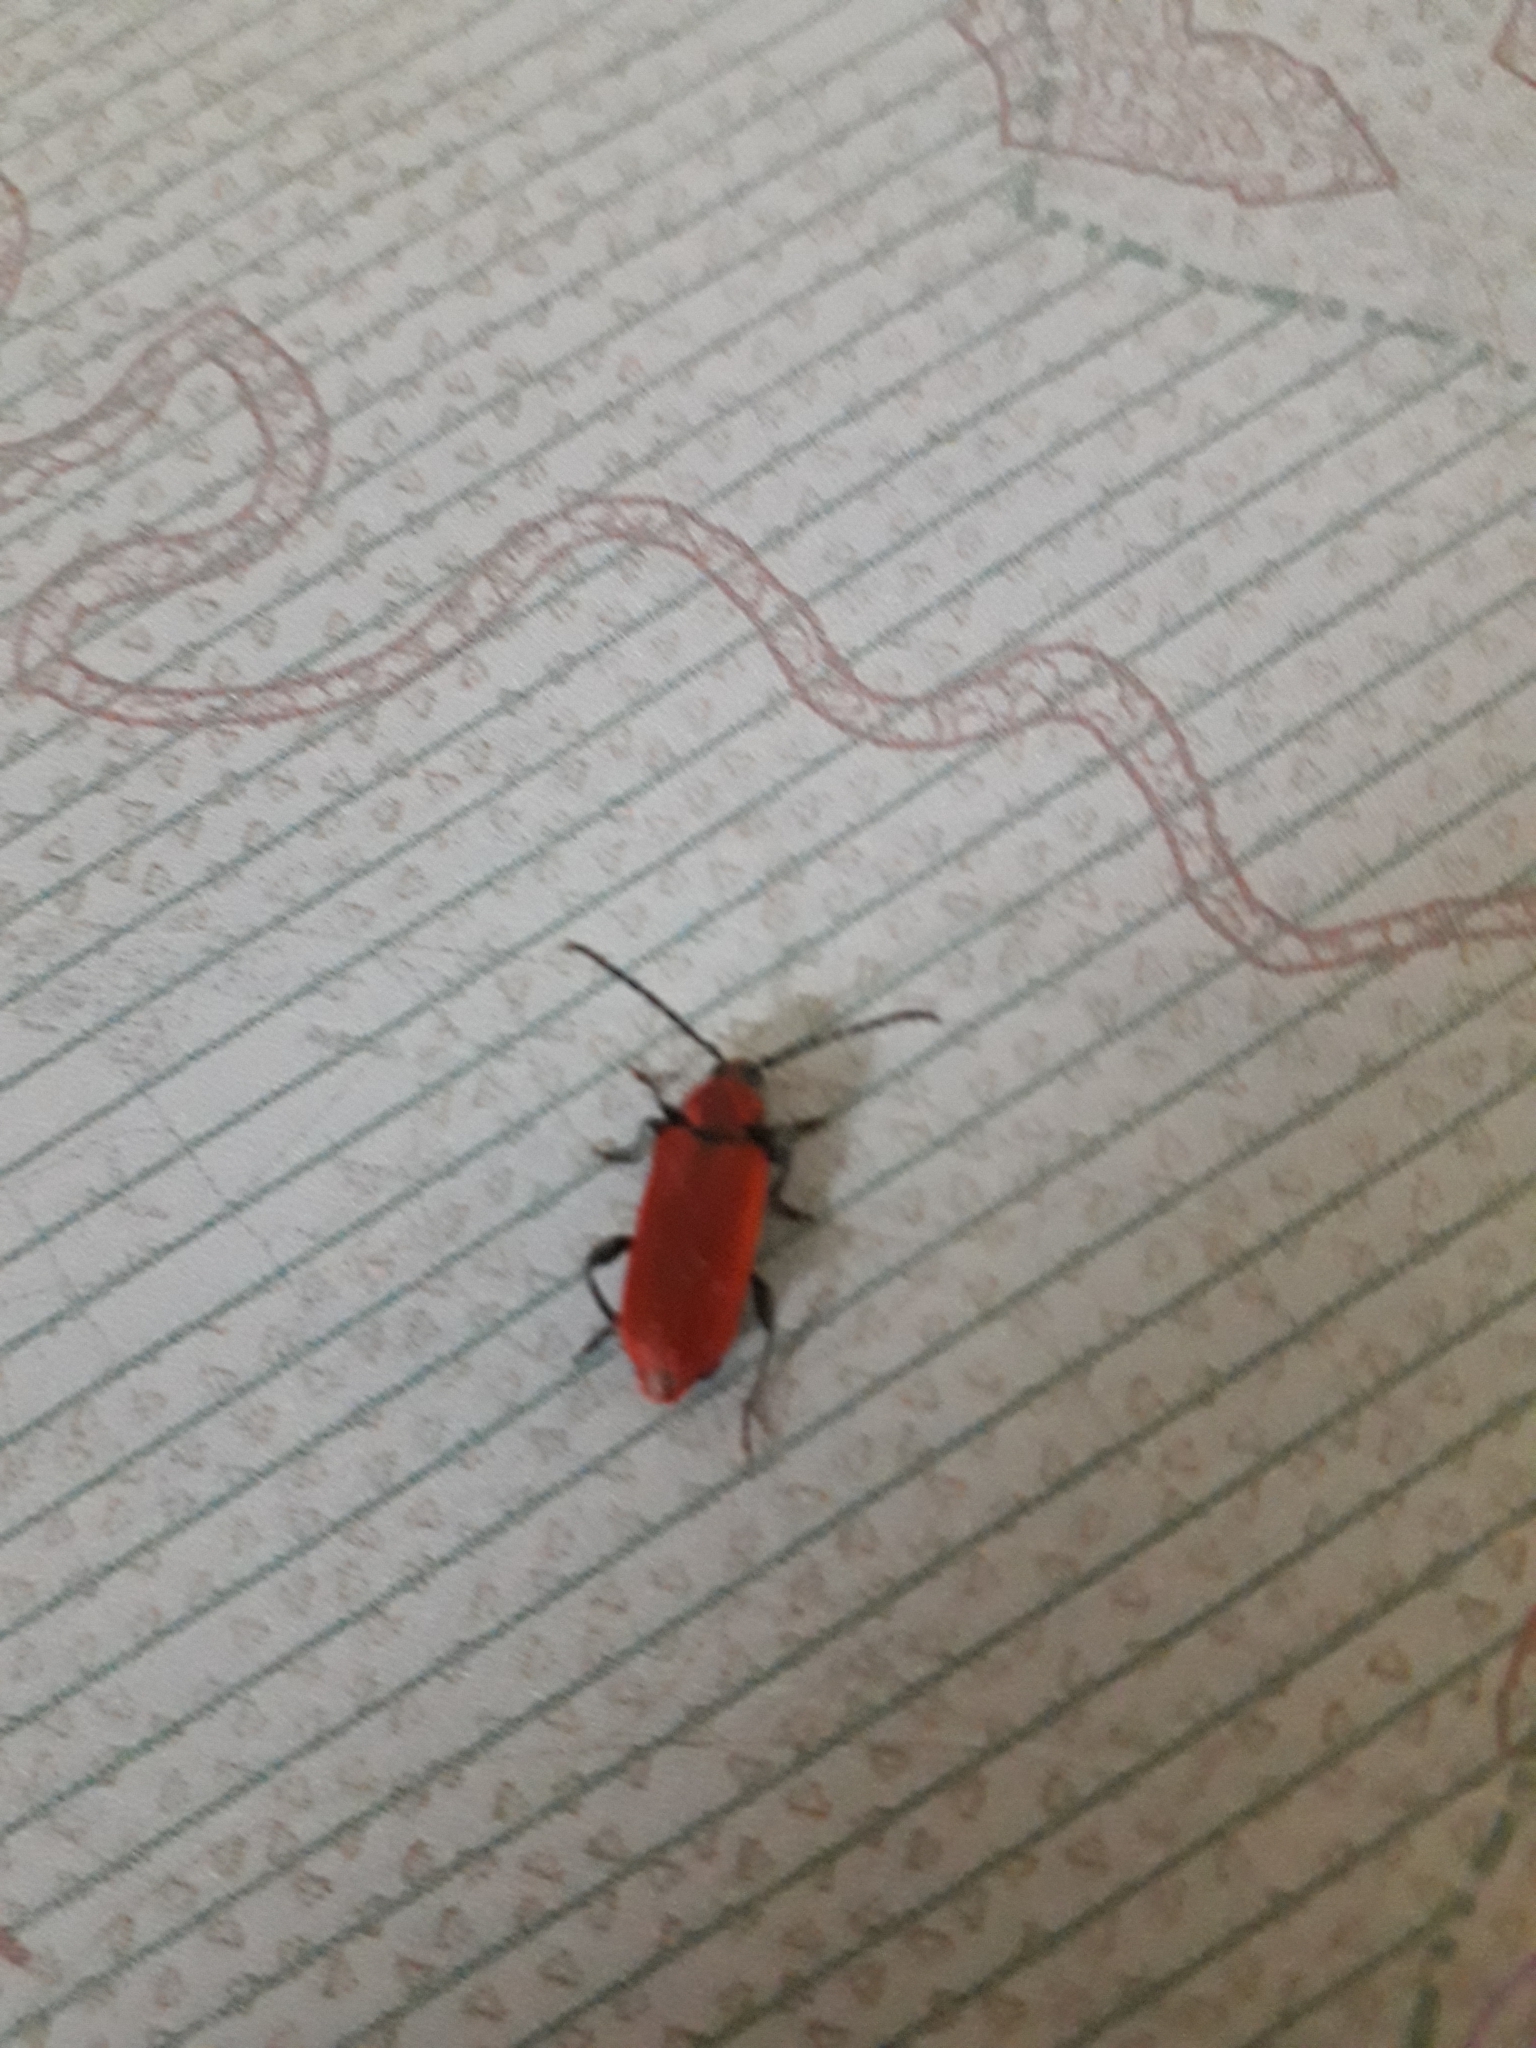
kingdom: Animalia
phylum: Arthropoda
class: Insecta
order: Coleoptera
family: Cerambycidae
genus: Pyrrhidium
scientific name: Pyrrhidium sanguineum
